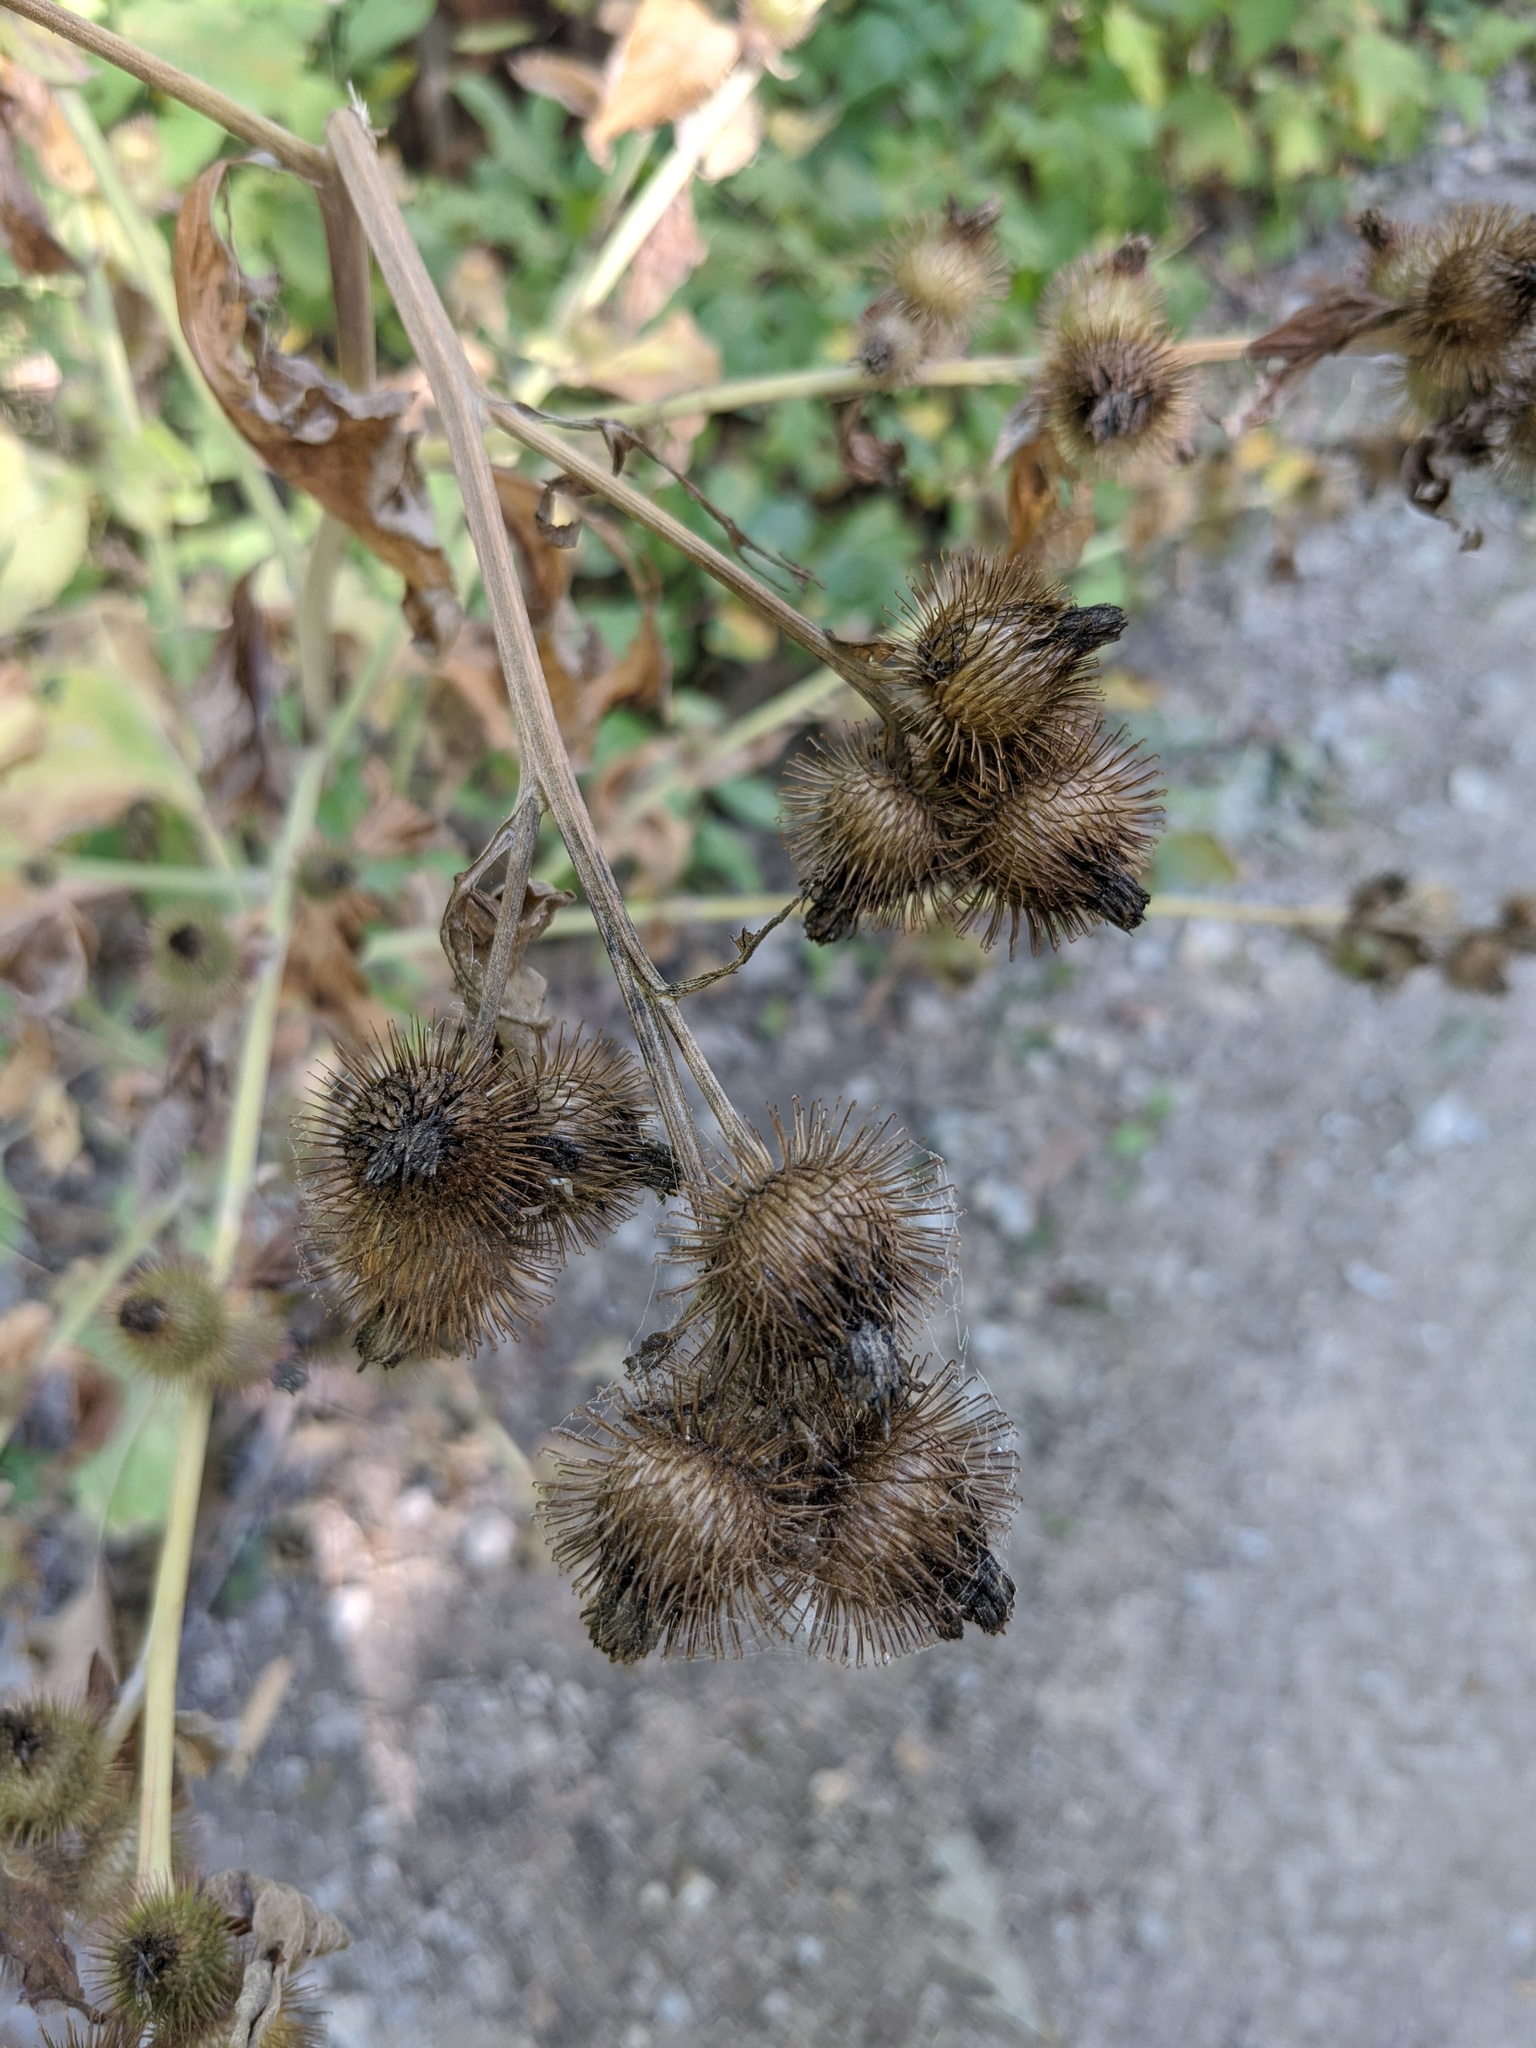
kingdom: Plantae
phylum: Tracheophyta
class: Magnoliopsida
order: Asterales
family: Asteraceae
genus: Arctium
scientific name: Arctium minus
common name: Lesser burdock
